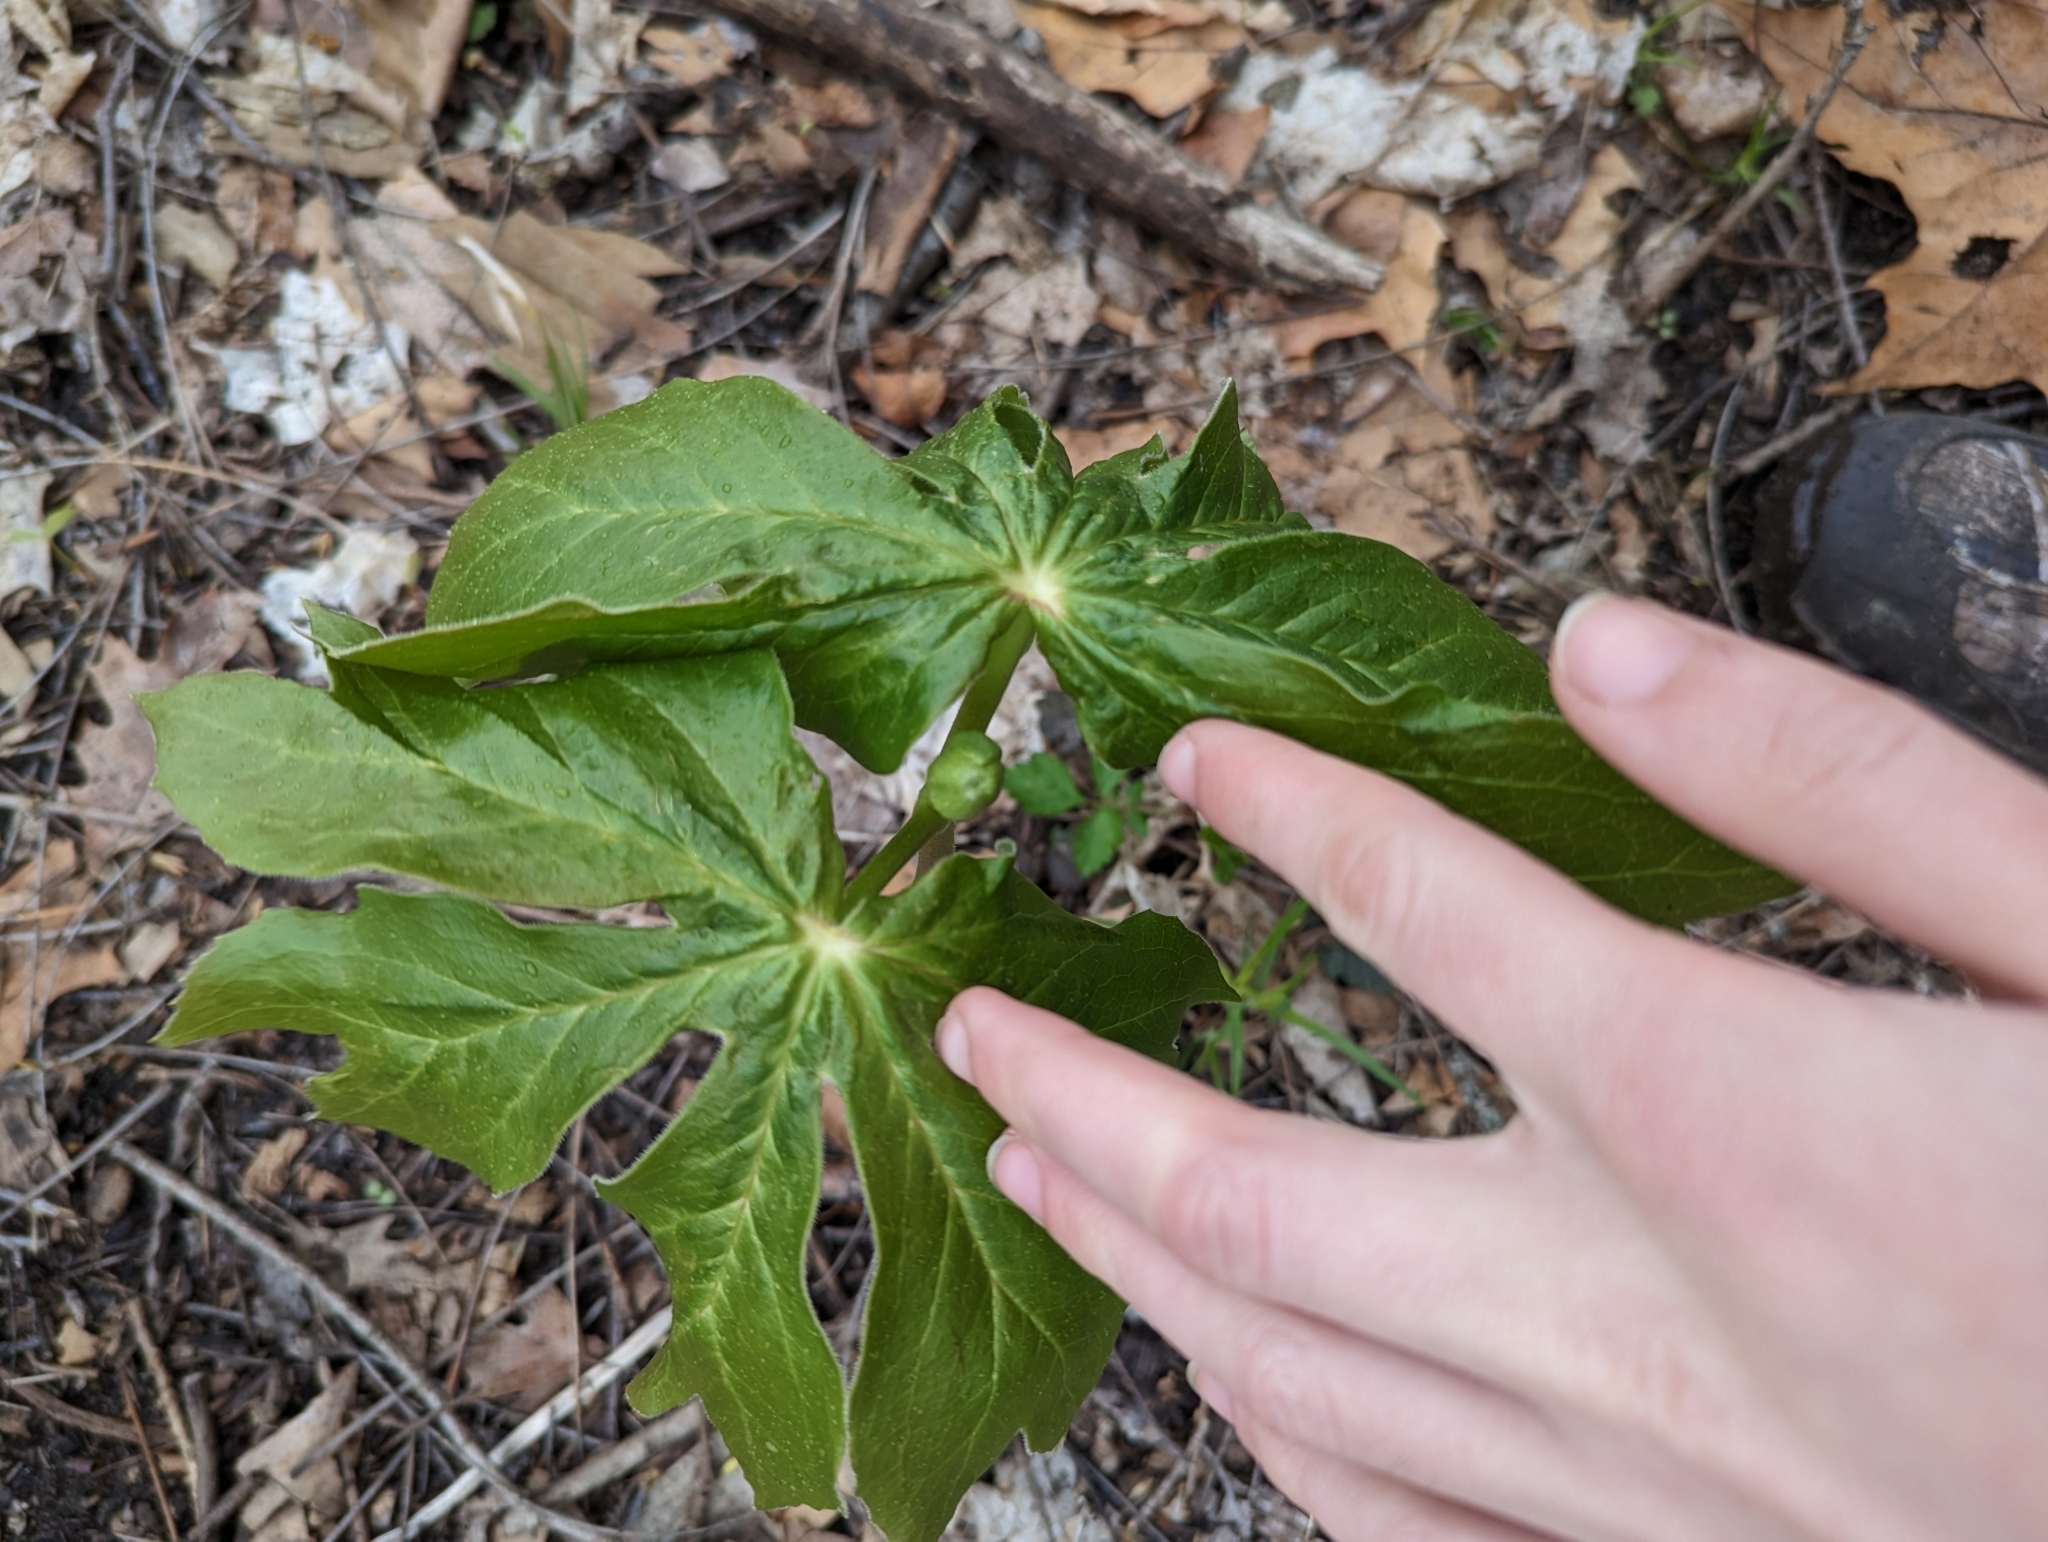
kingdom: Plantae
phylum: Tracheophyta
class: Magnoliopsida
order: Ranunculales
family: Berberidaceae
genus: Podophyllum
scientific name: Podophyllum peltatum
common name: Wild mandrake
